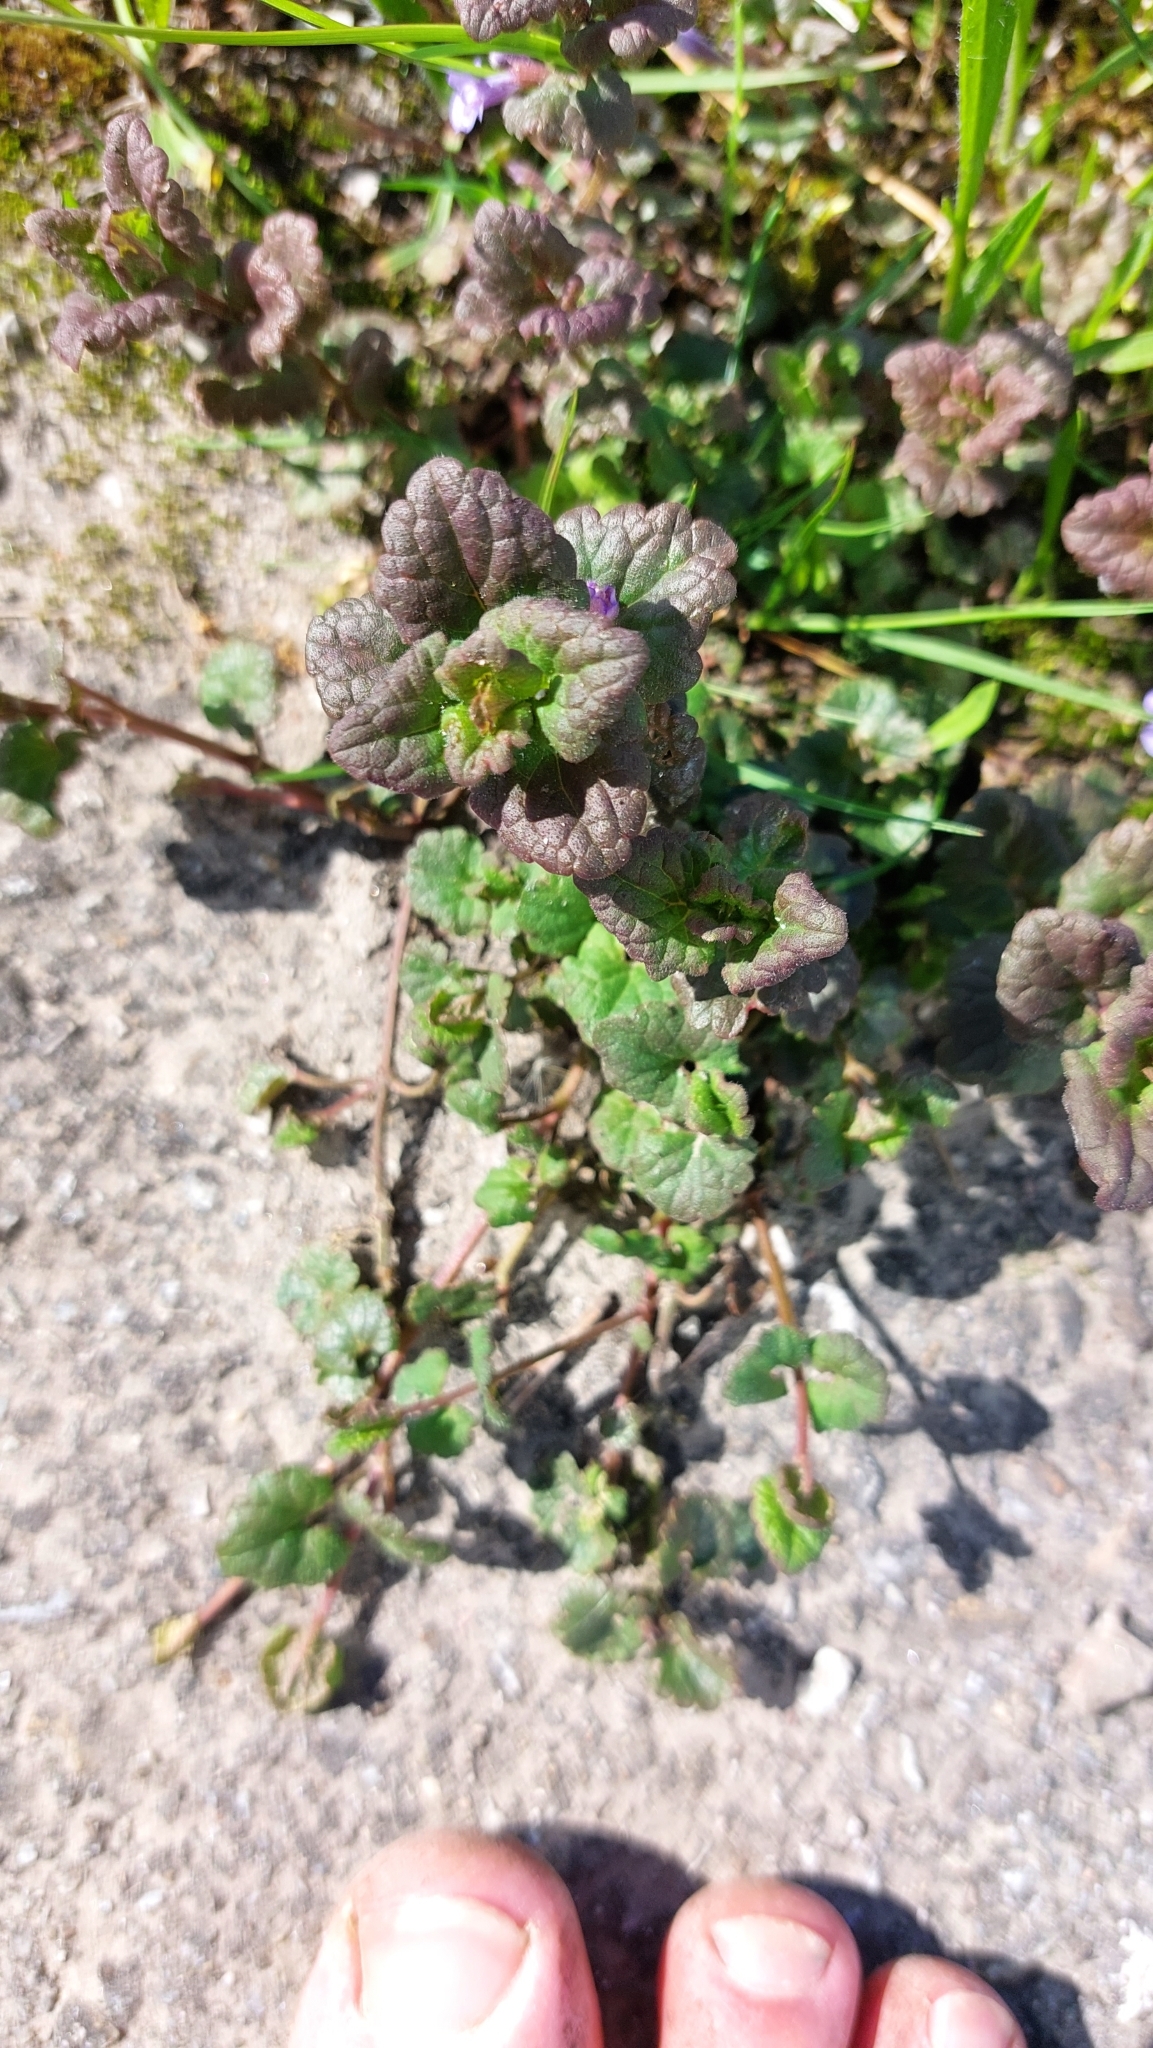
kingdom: Plantae
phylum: Tracheophyta
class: Magnoliopsida
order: Lamiales
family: Lamiaceae
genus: Glechoma
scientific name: Glechoma hederacea
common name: Ground ivy
